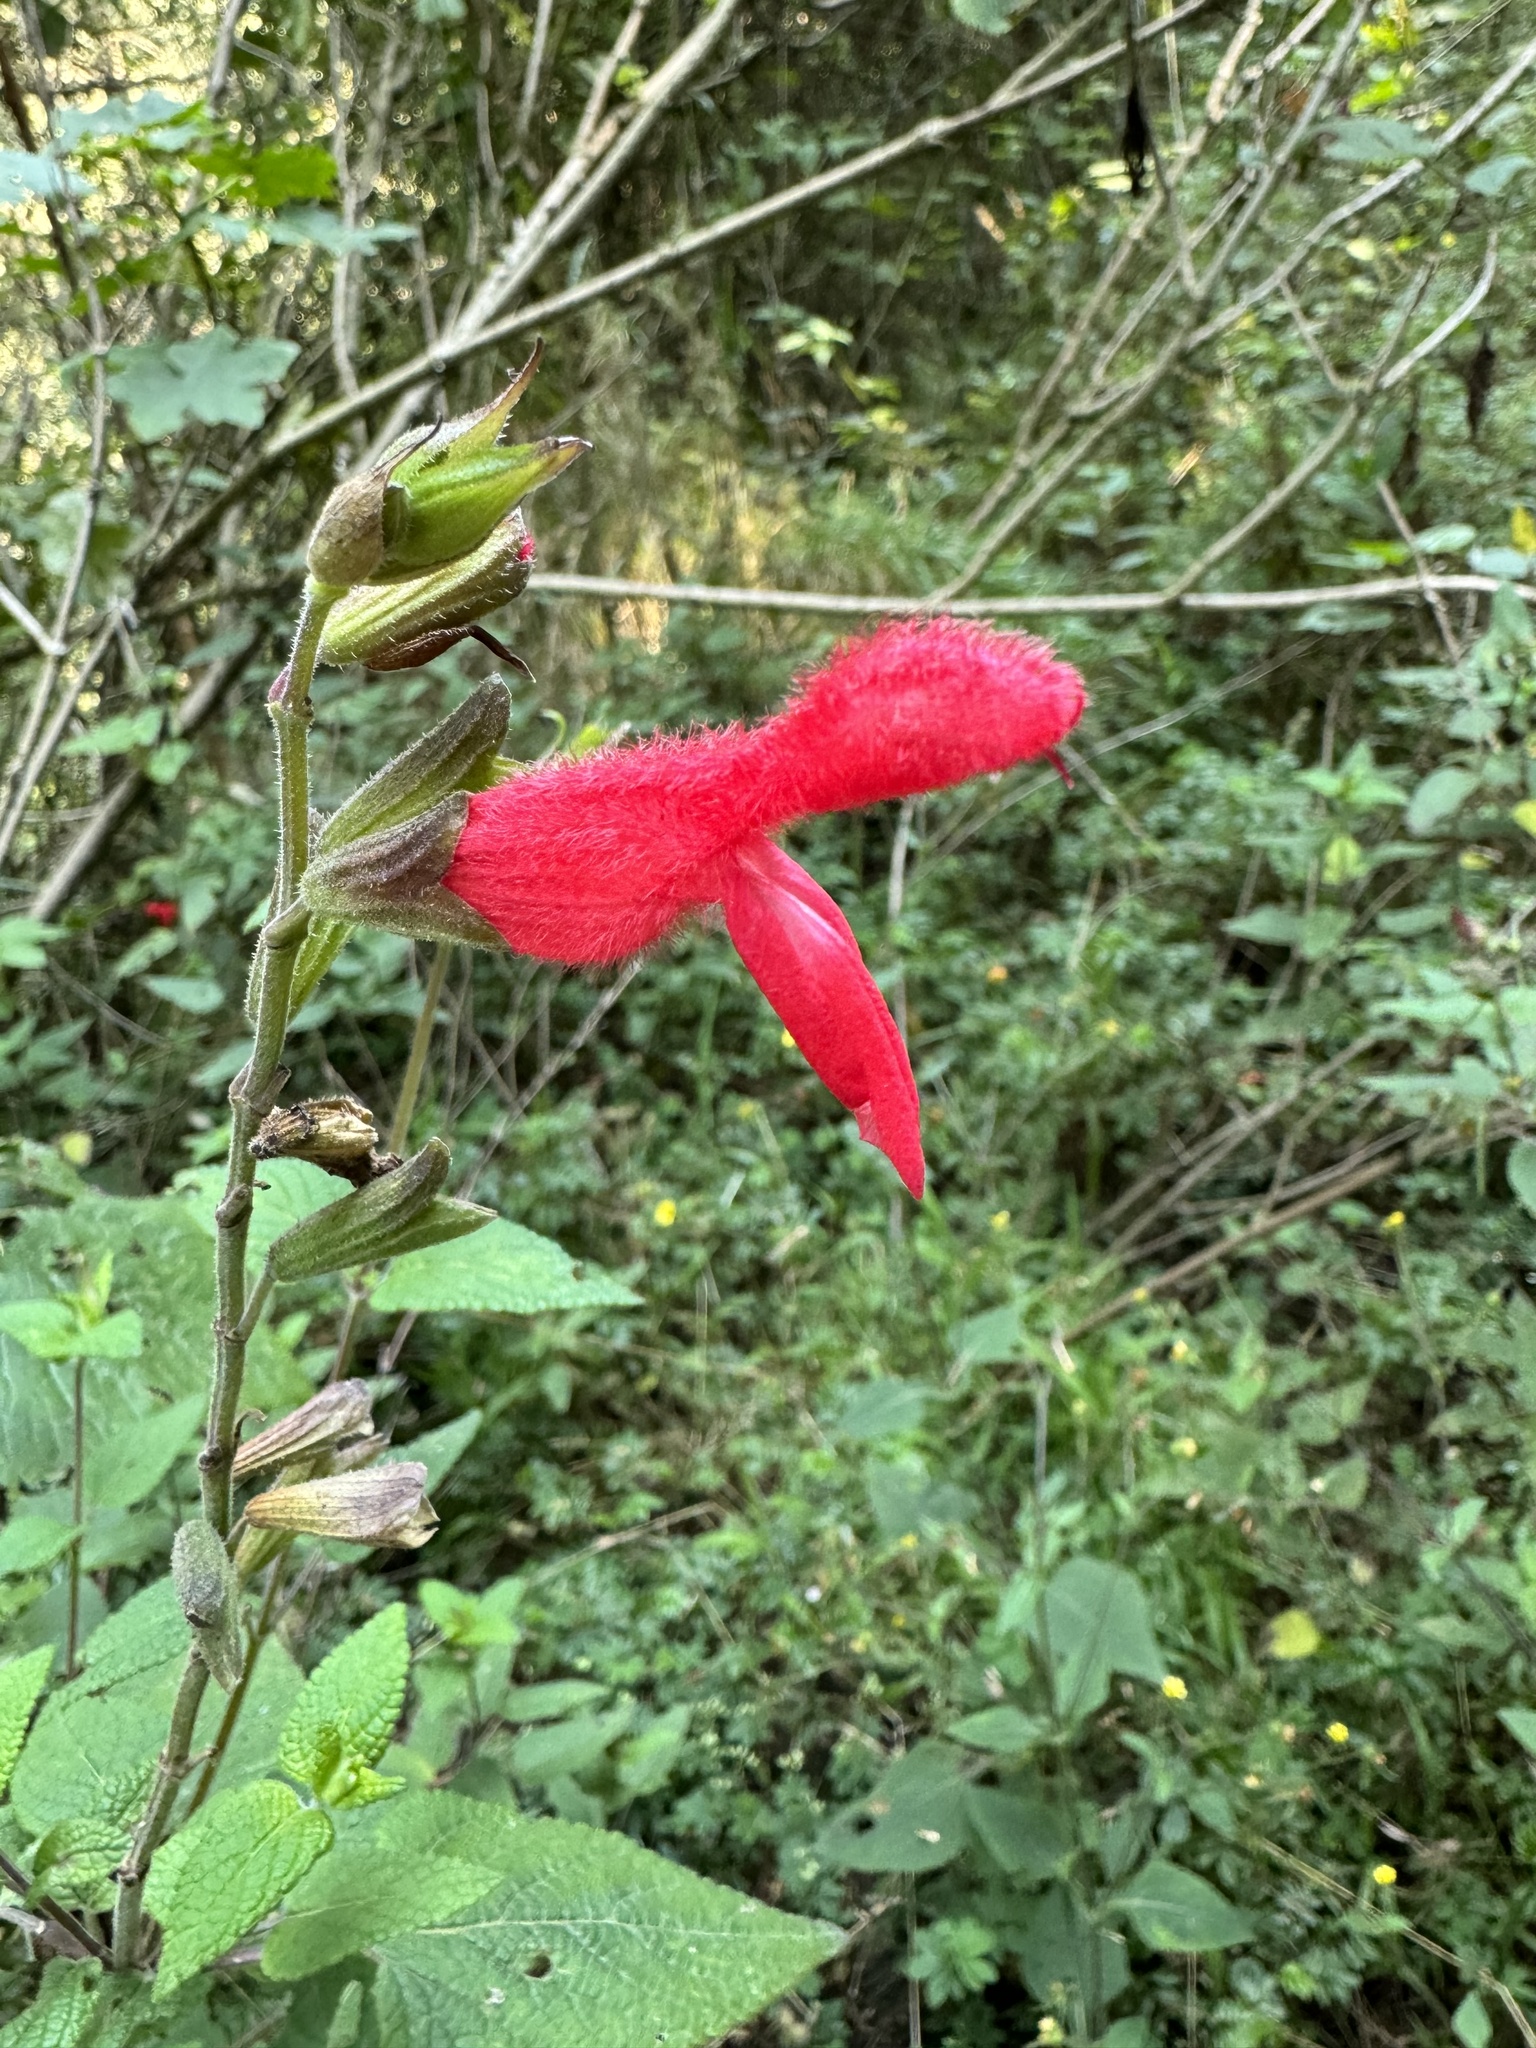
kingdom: Plantae
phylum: Tracheophyta
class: Magnoliopsida
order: Lamiales
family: Lamiaceae
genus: Salvia
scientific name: Salvia fulgens
